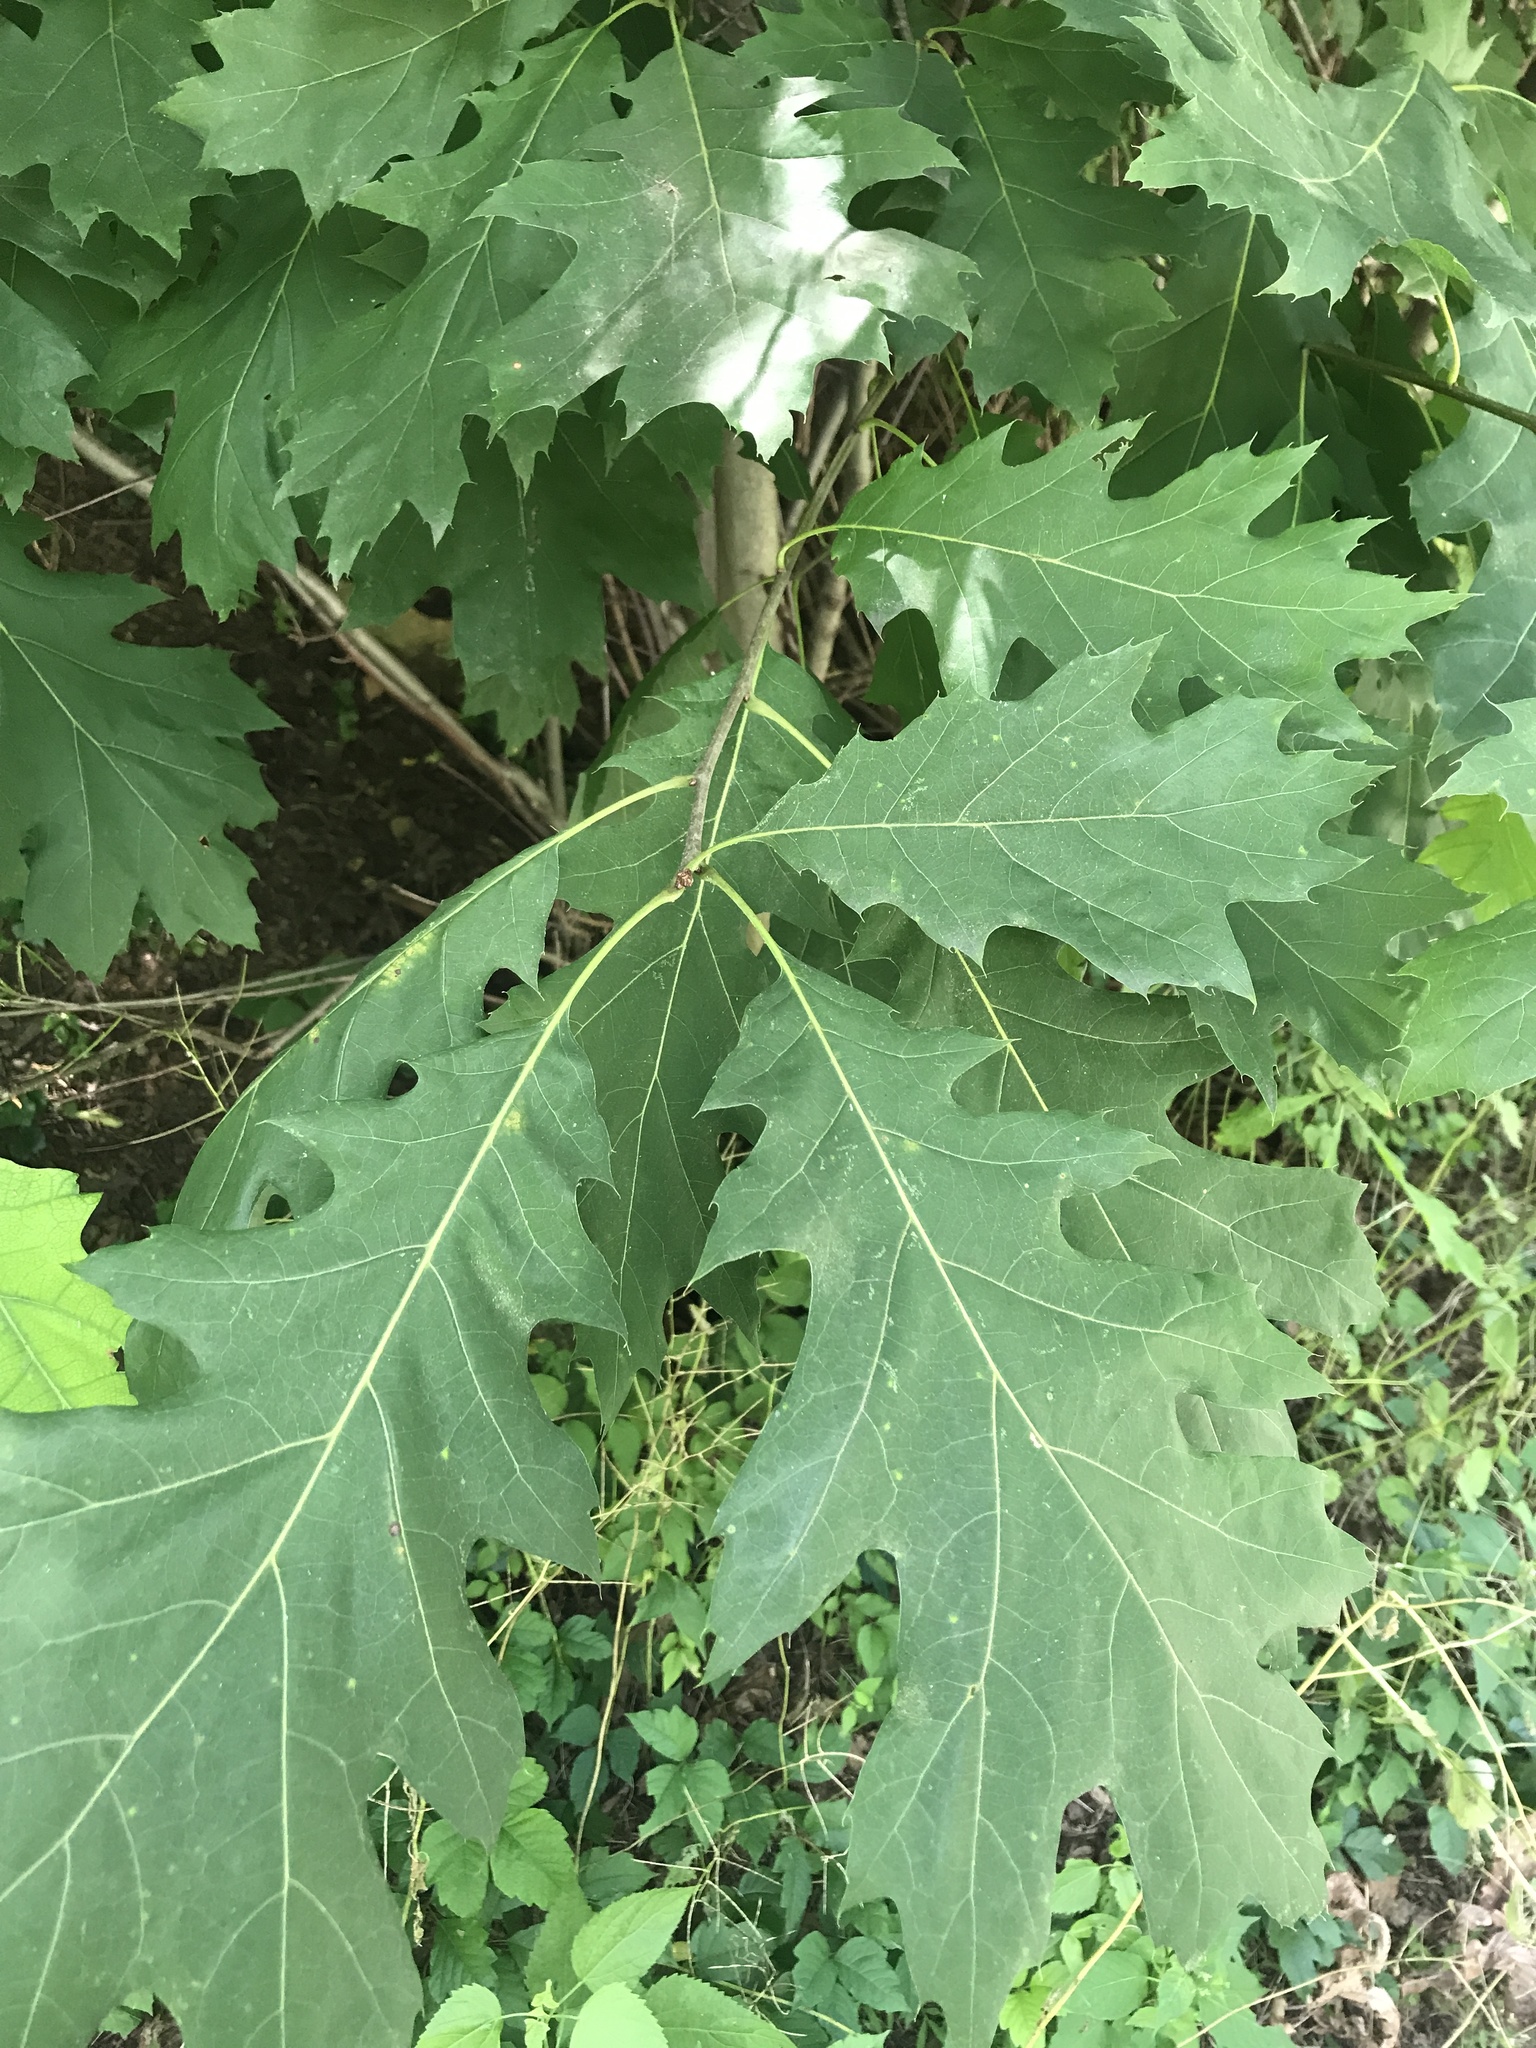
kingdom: Plantae
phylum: Tracheophyta
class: Magnoliopsida
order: Fagales
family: Fagaceae
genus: Quercus
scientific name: Quercus rubra
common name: Red oak
